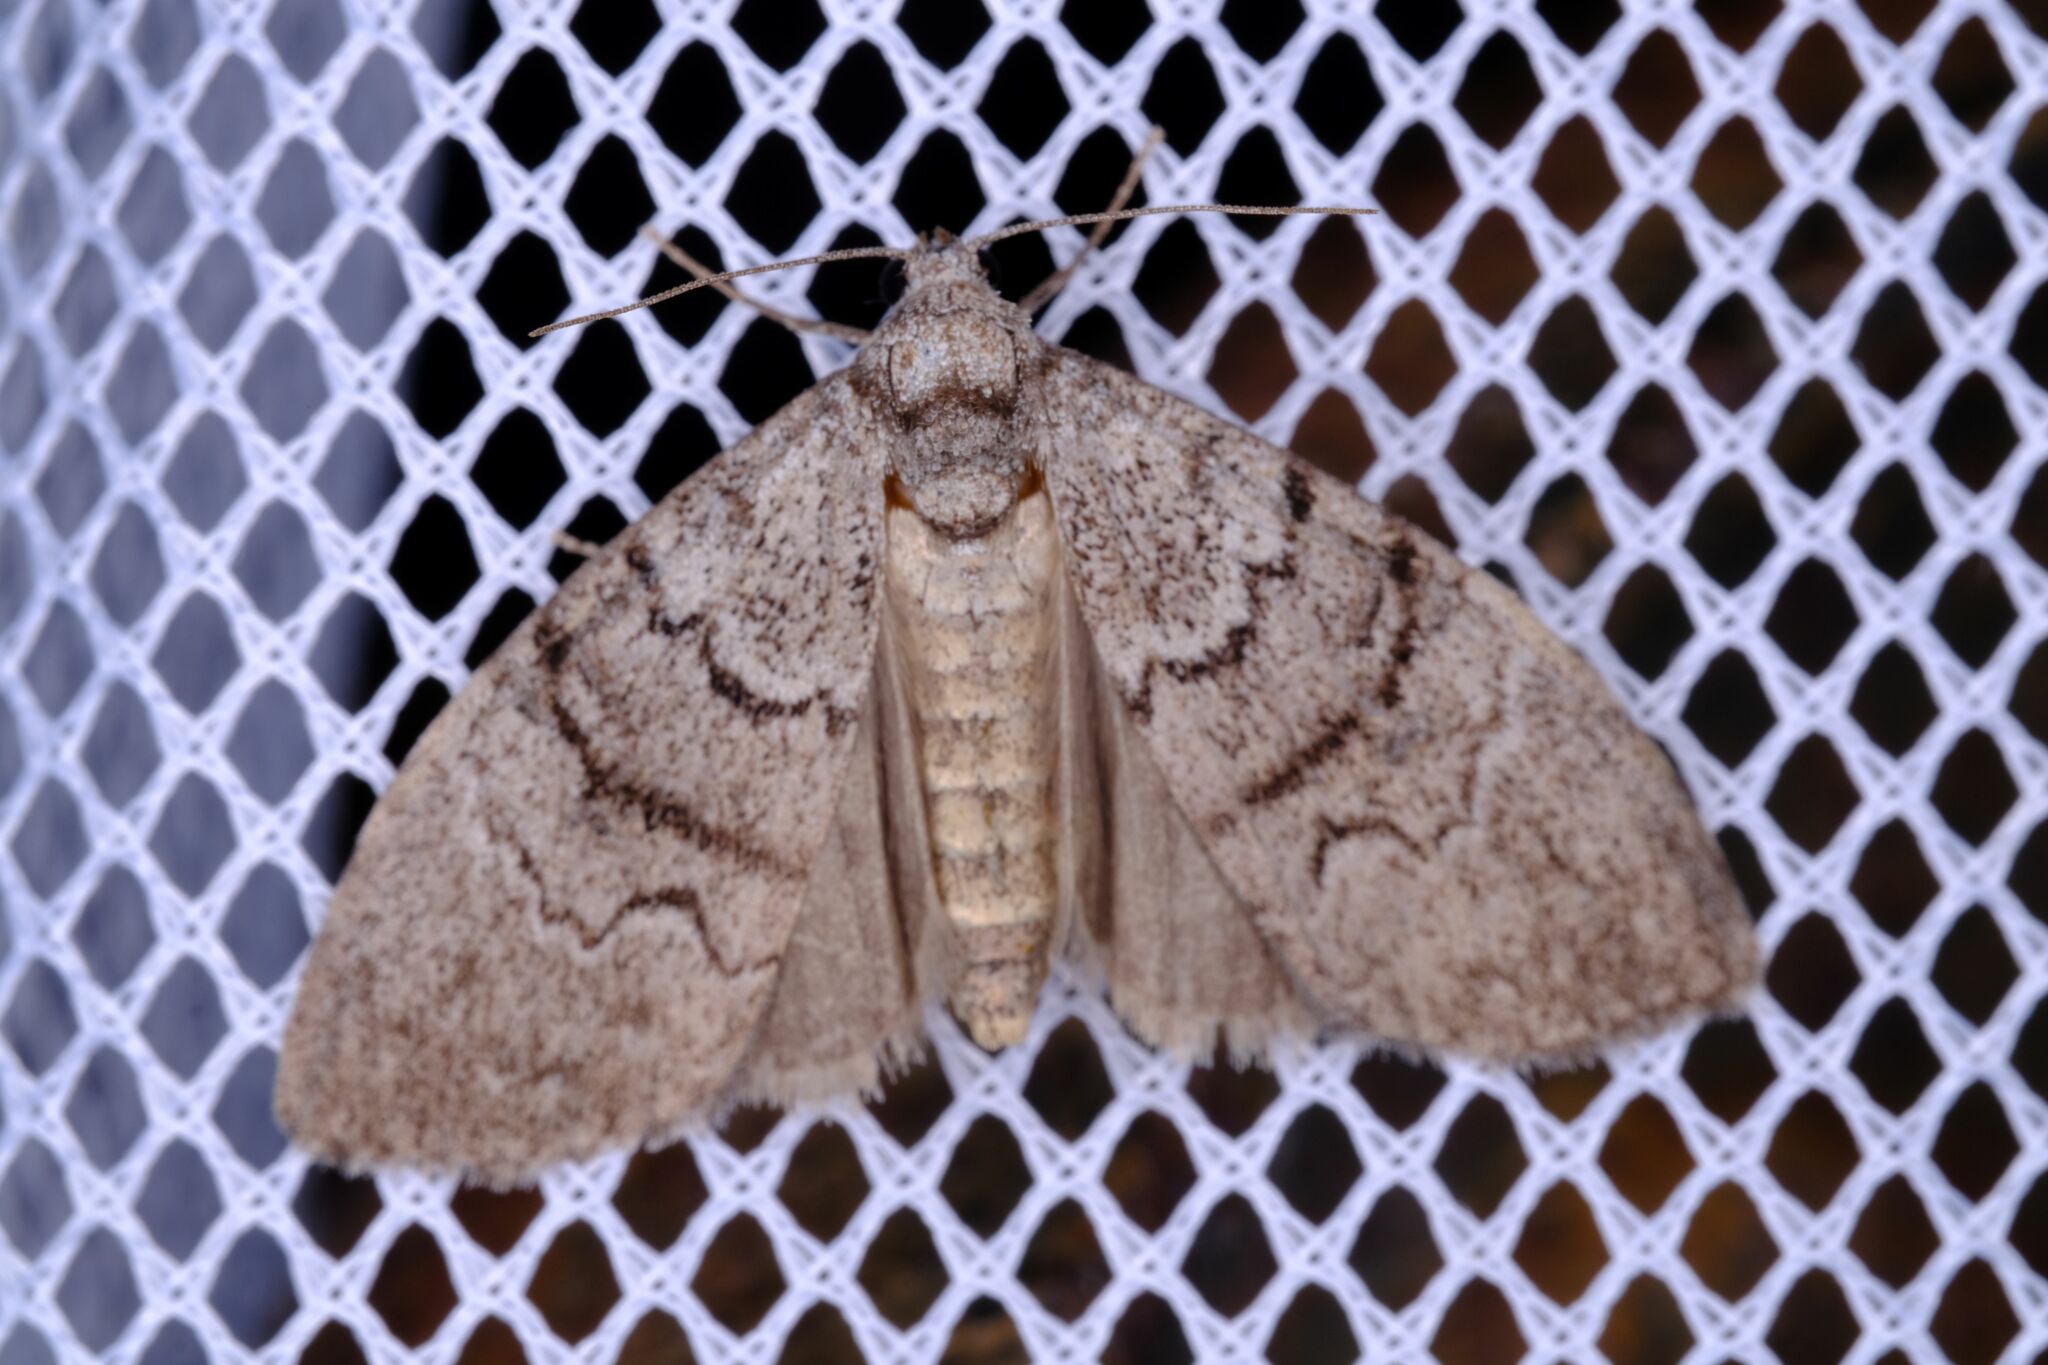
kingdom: Animalia
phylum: Arthropoda
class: Insecta
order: Lepidoptera
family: Nolidae
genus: Uraba
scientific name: Uraba lugens
